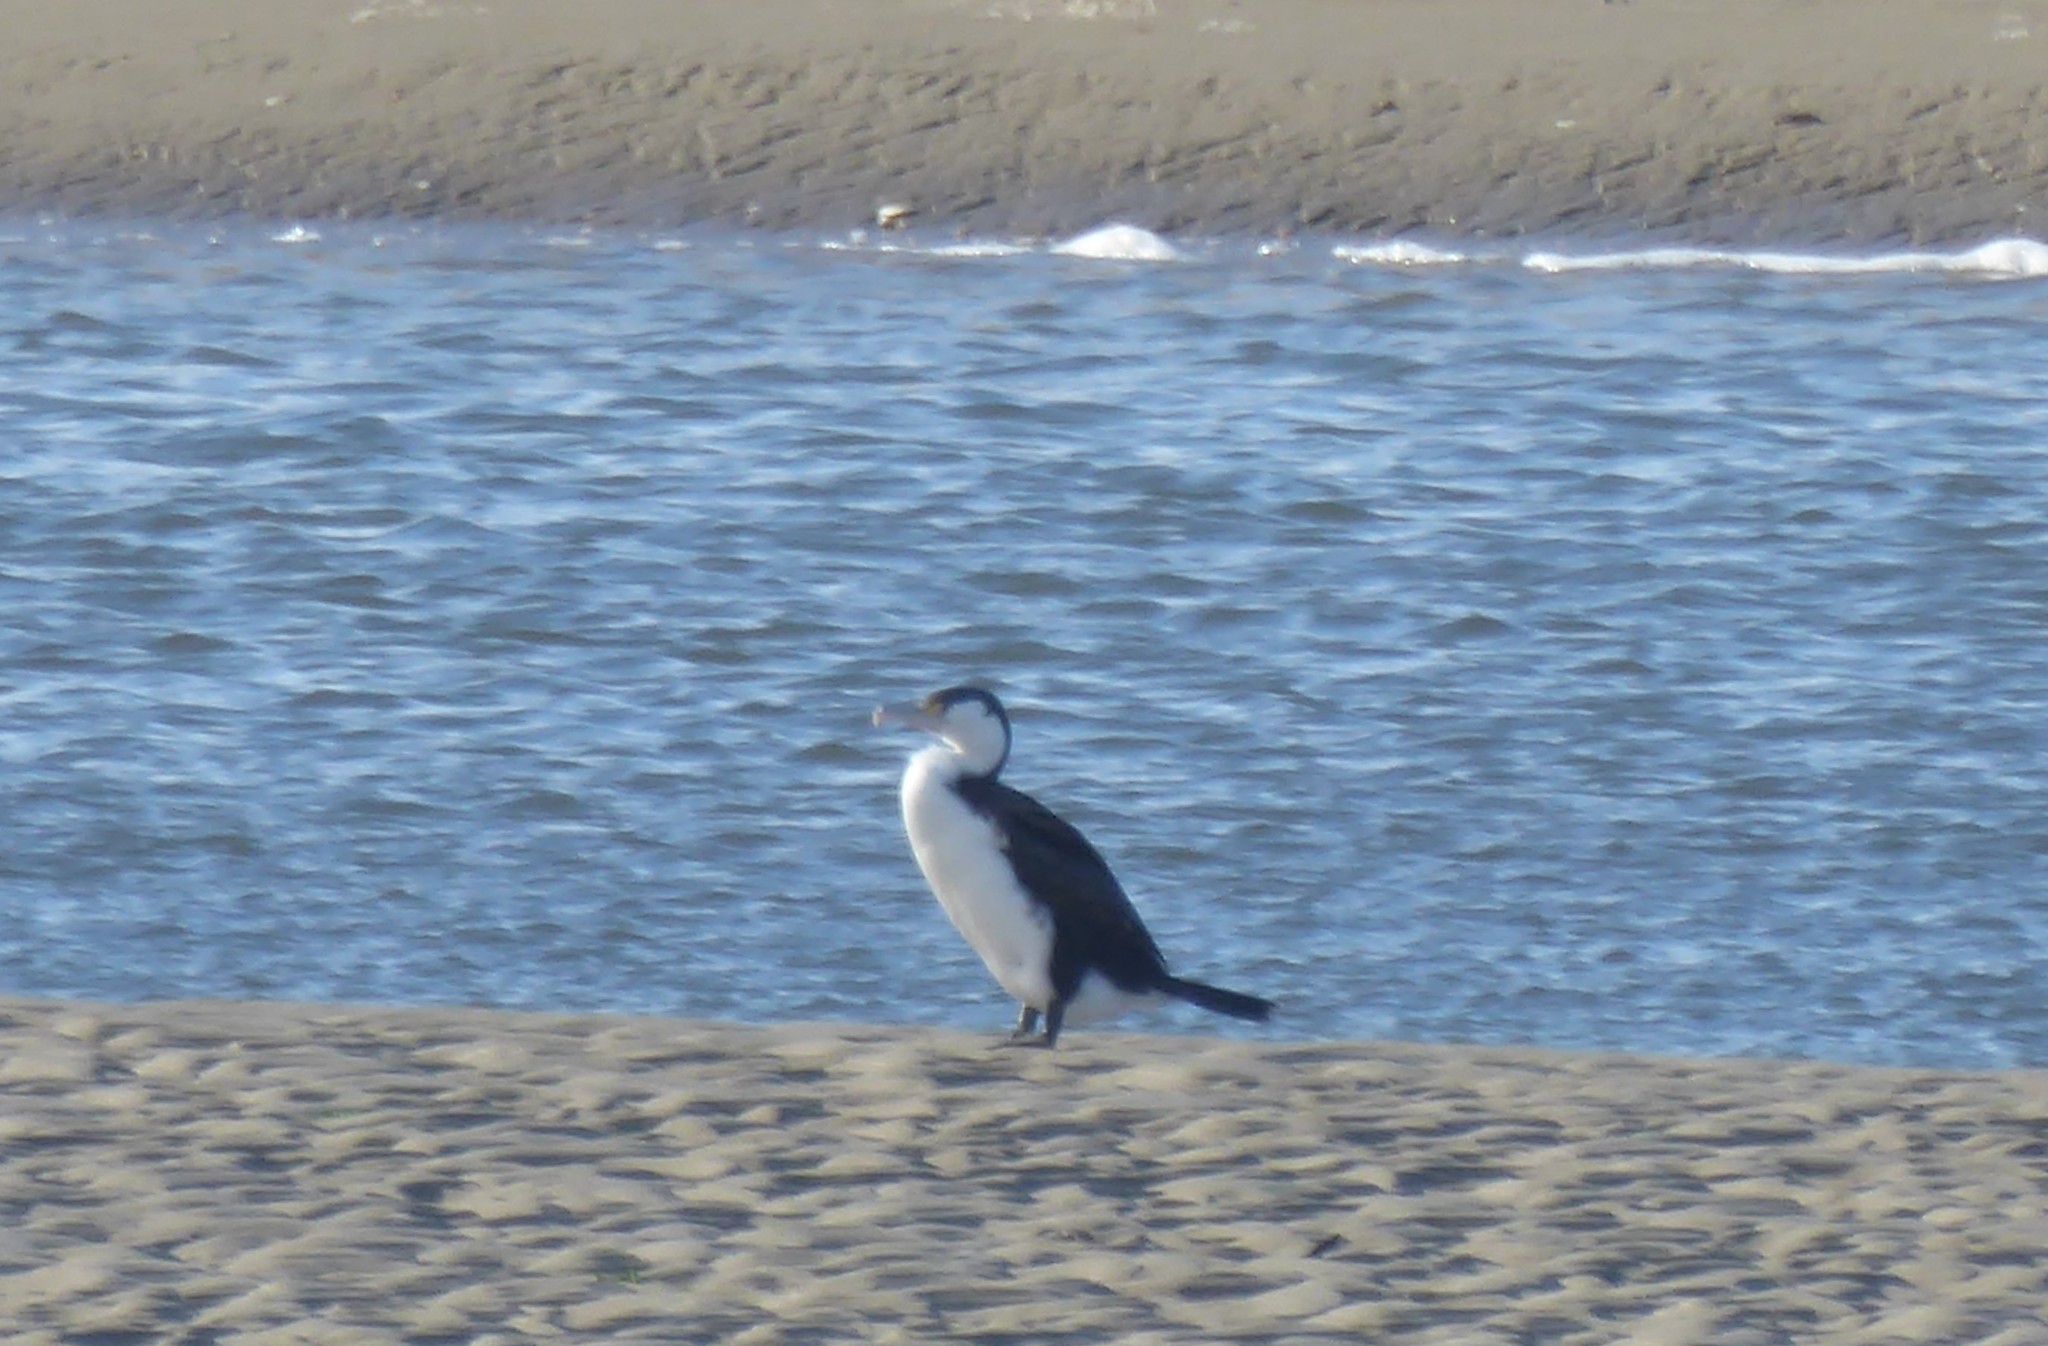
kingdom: Animalia
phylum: Chordata
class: Aves
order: Suliformes
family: Phalacrocoracidae
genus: Phalacrocorax
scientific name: Phalacrocorax varius
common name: Pied cormorant
